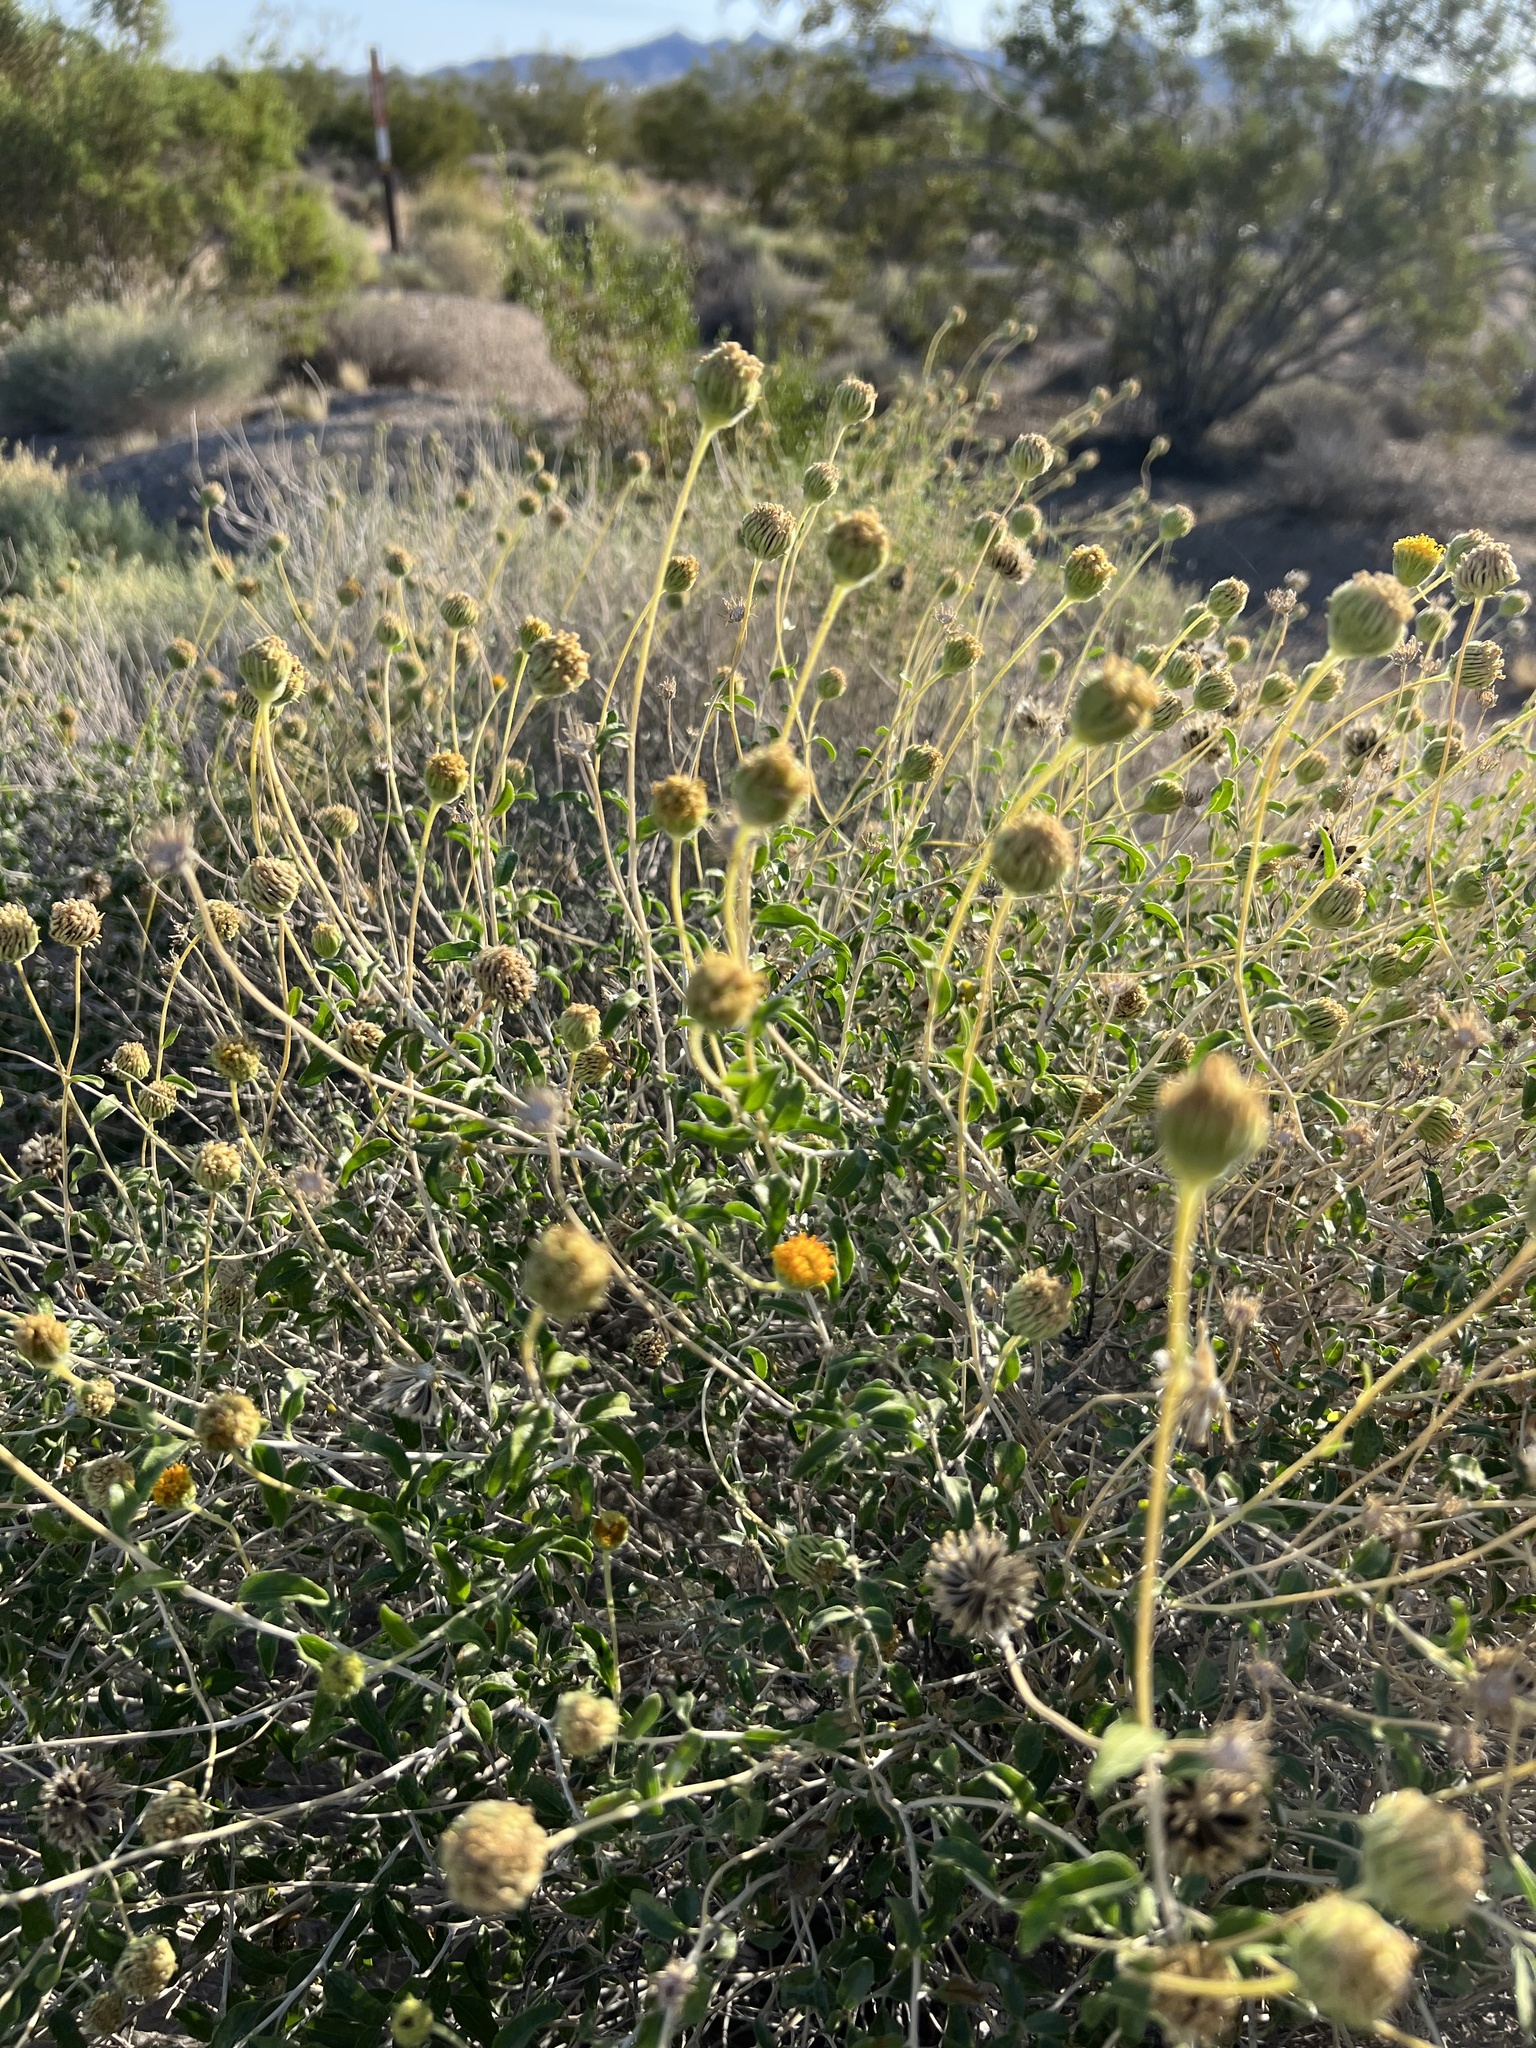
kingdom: Plantae
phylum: Tracheophyta
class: Magnoliopsida
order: Asterales
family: Asteraceae
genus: Encelia
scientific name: Encelia frutescens
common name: Bush encelia
